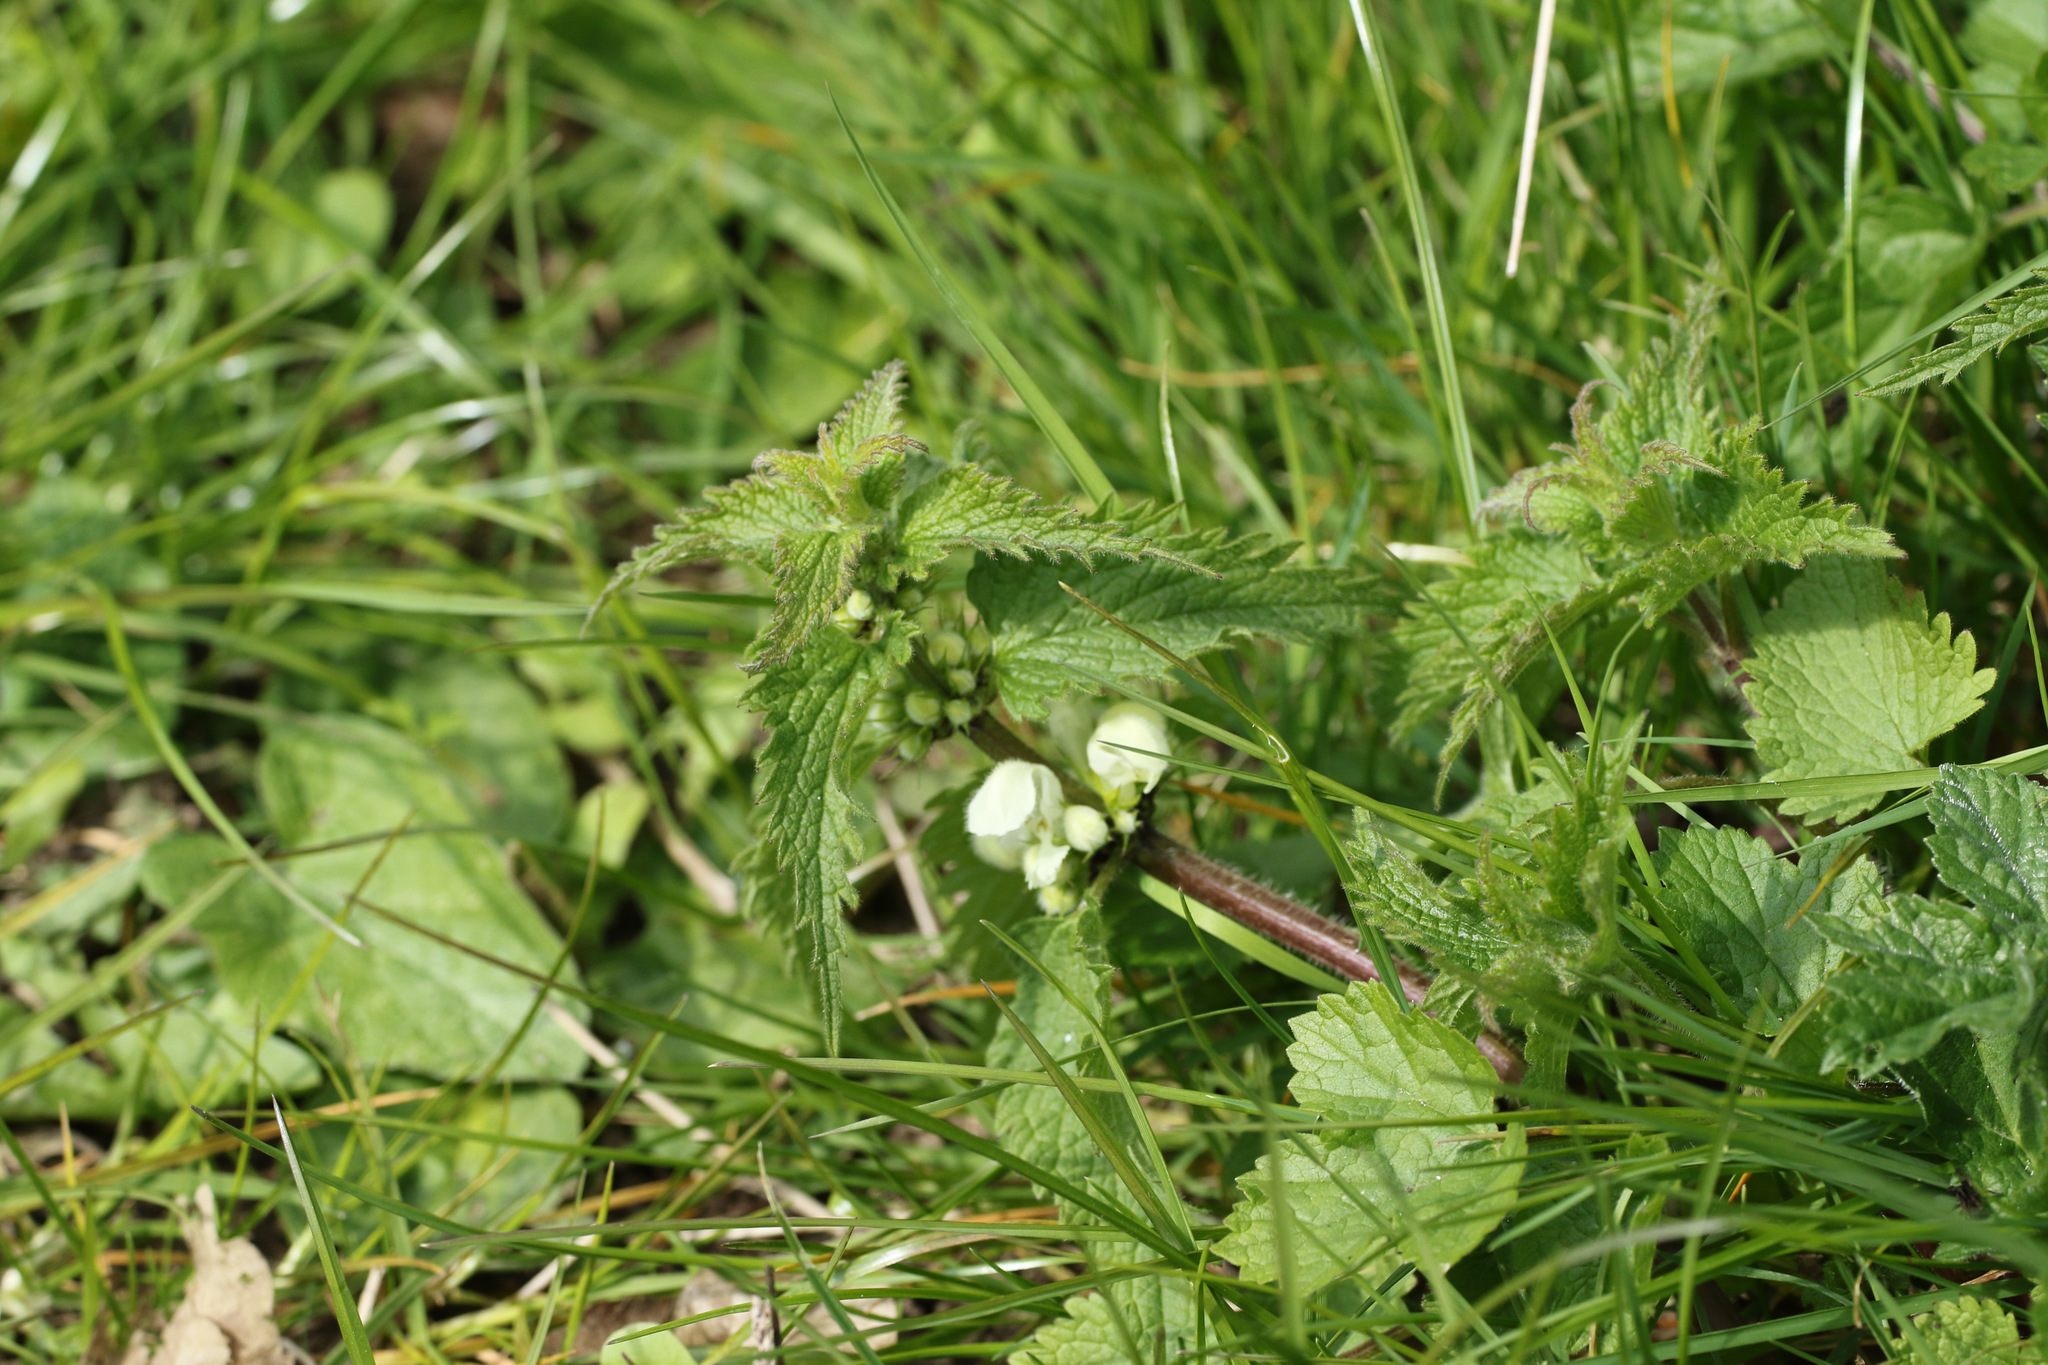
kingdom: Plantae
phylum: Tracheophyta
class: Magnoliopsida
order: Lamiales
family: Lamiaceae
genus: Lamium
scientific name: Lamium album
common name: White dead-nettle
